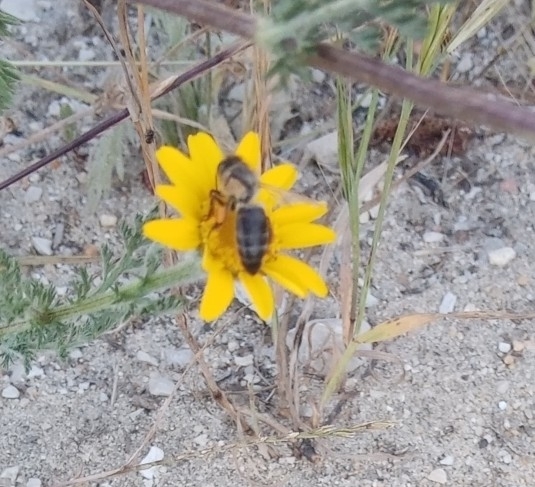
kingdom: Animalia
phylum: Arthropoda
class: Insecta
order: Hymenoptera
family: Apidae
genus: Apis
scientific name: Apis mellifera
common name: Honey bee
